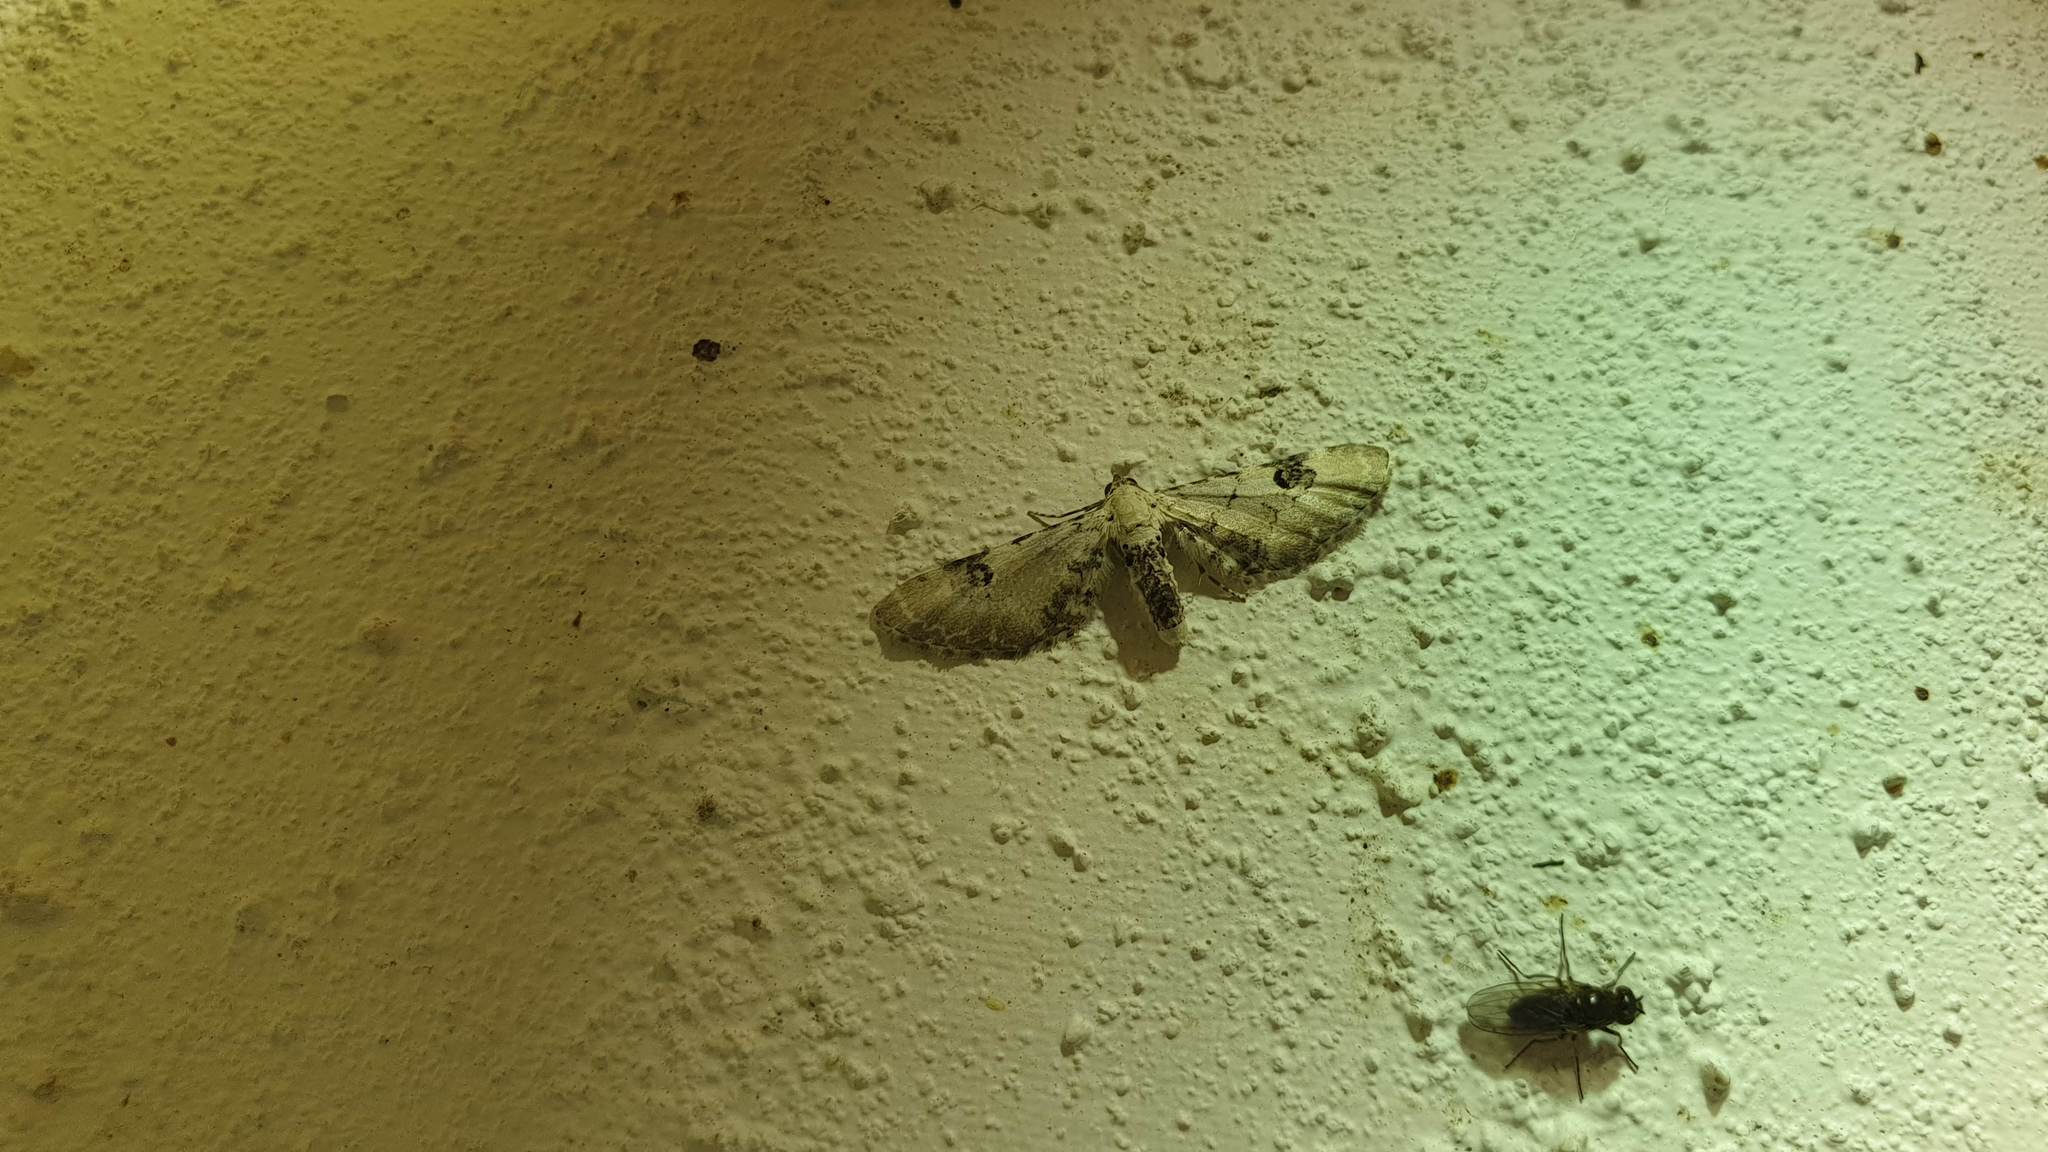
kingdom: Animalia
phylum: Arthropoda
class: Insecta
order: Lepidoptera
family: Geometridae
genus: Eupithecia
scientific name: Eupithecia centaureata
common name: Lime-speck pug
